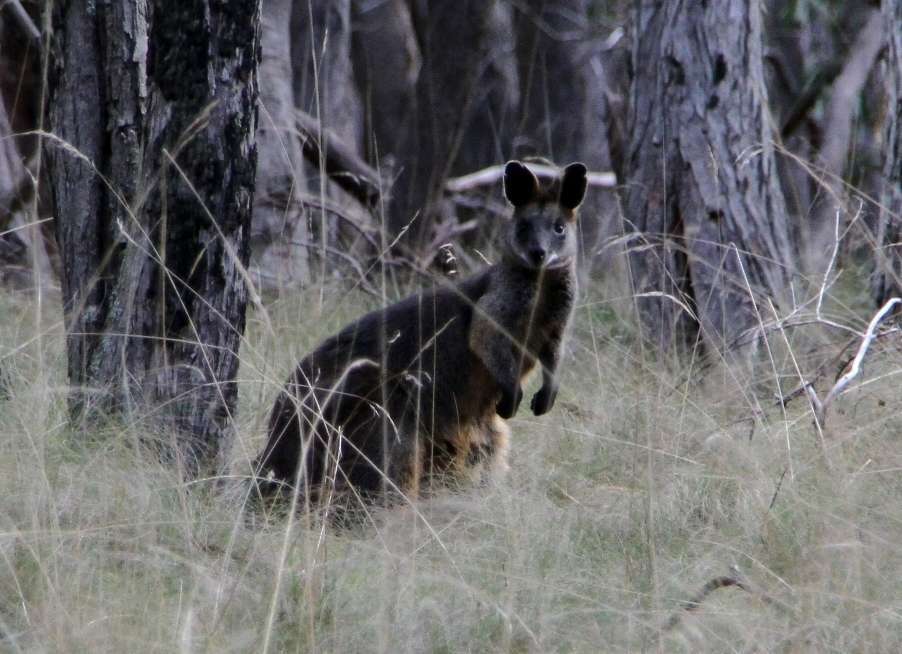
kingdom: Animalia
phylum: Chordata
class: Mammalia
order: Diprotodontia
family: Macropodidae
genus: Wallabia
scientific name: Wallabia bicolor
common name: Swamp wallaby
